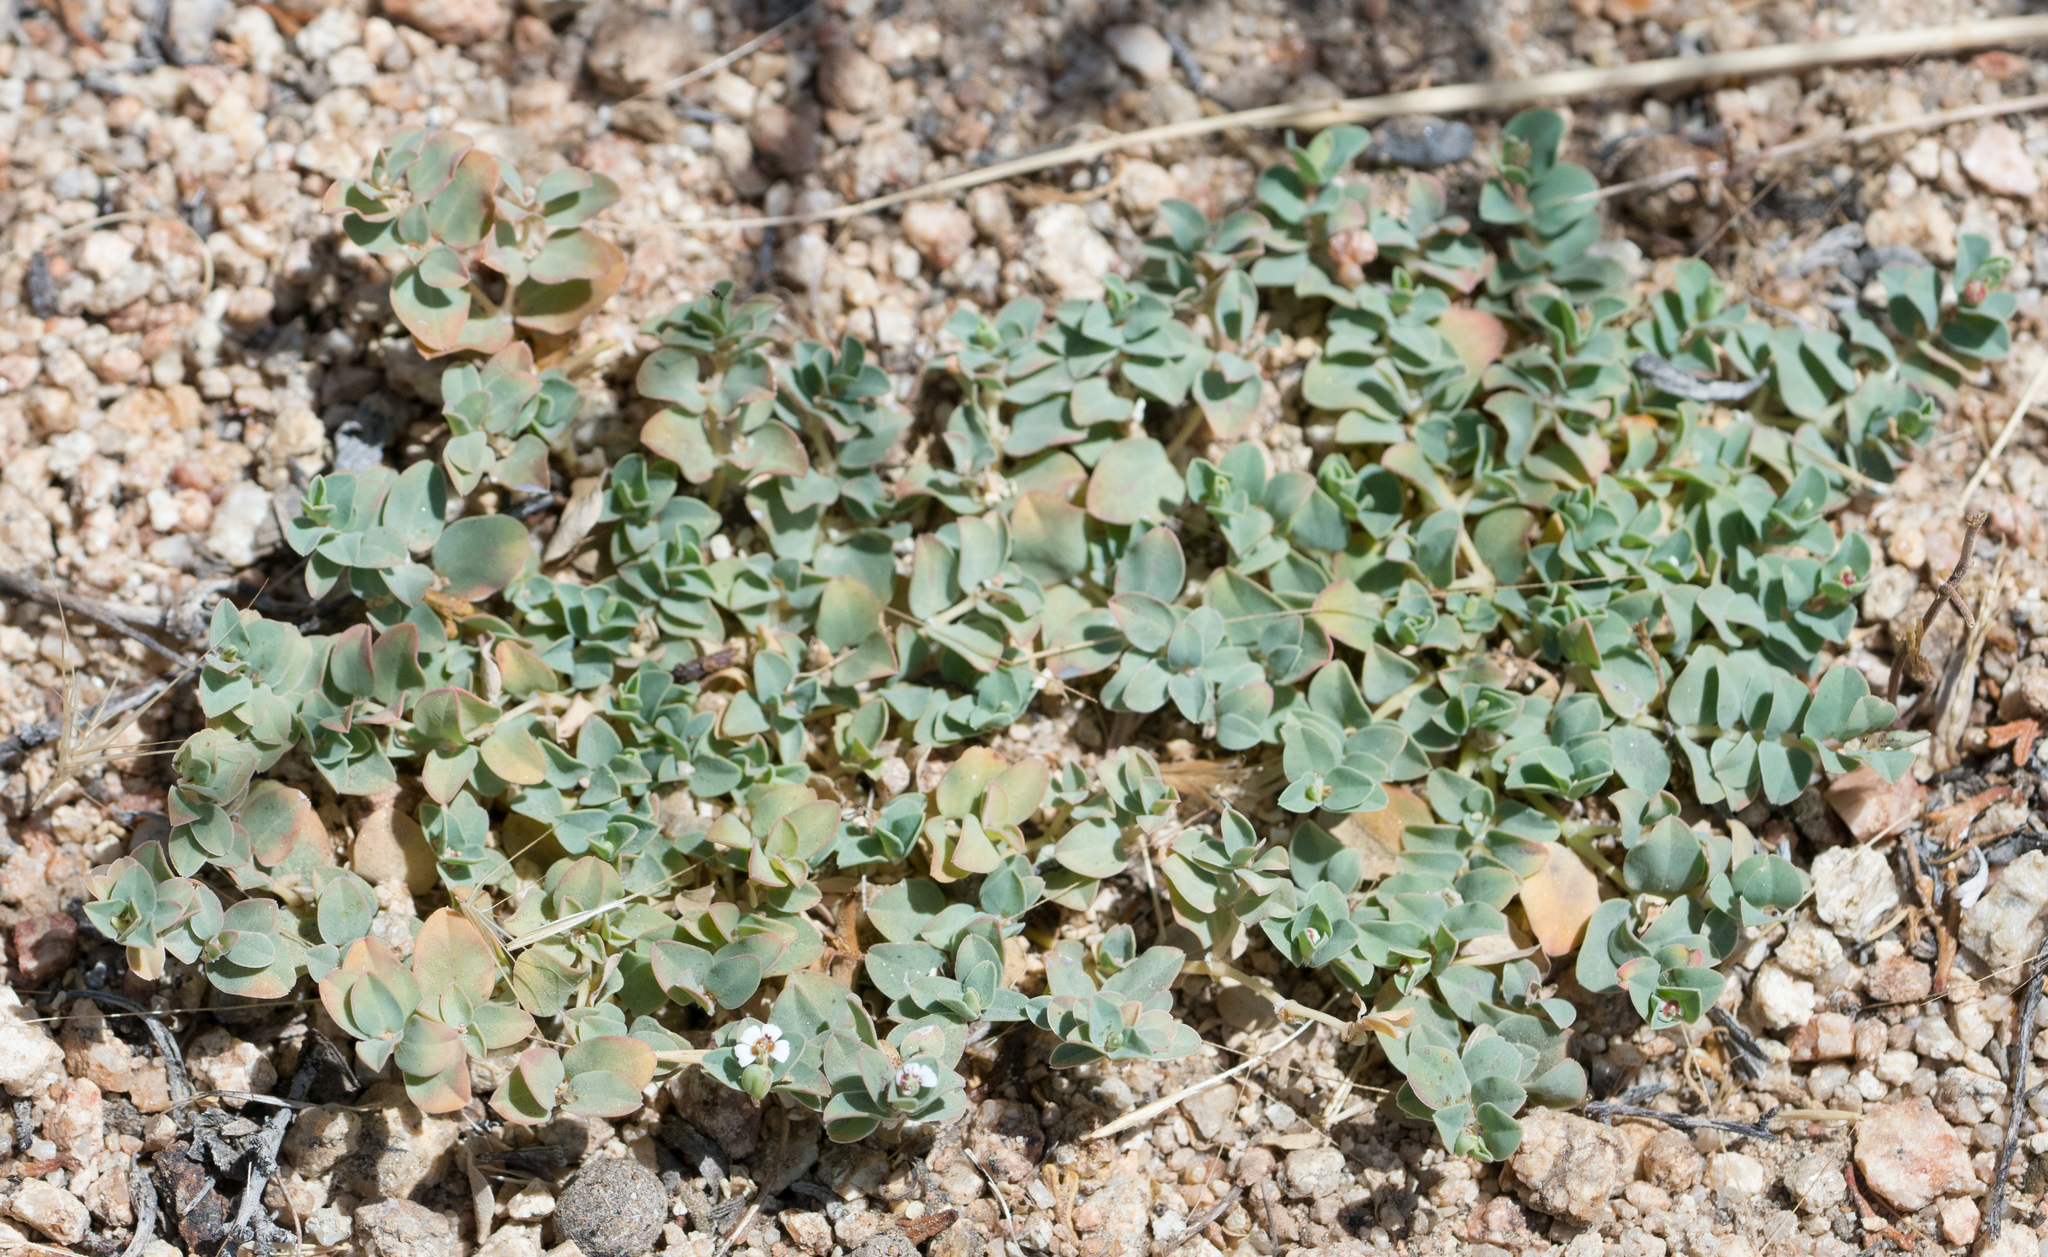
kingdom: Plantae
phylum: Tracheophyta
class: Magnoliopsida
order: Malpighiales
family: Euphorbiaceae
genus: Euphorbia
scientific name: Euphorbia albomarginata
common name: Whitemargin sandmat
